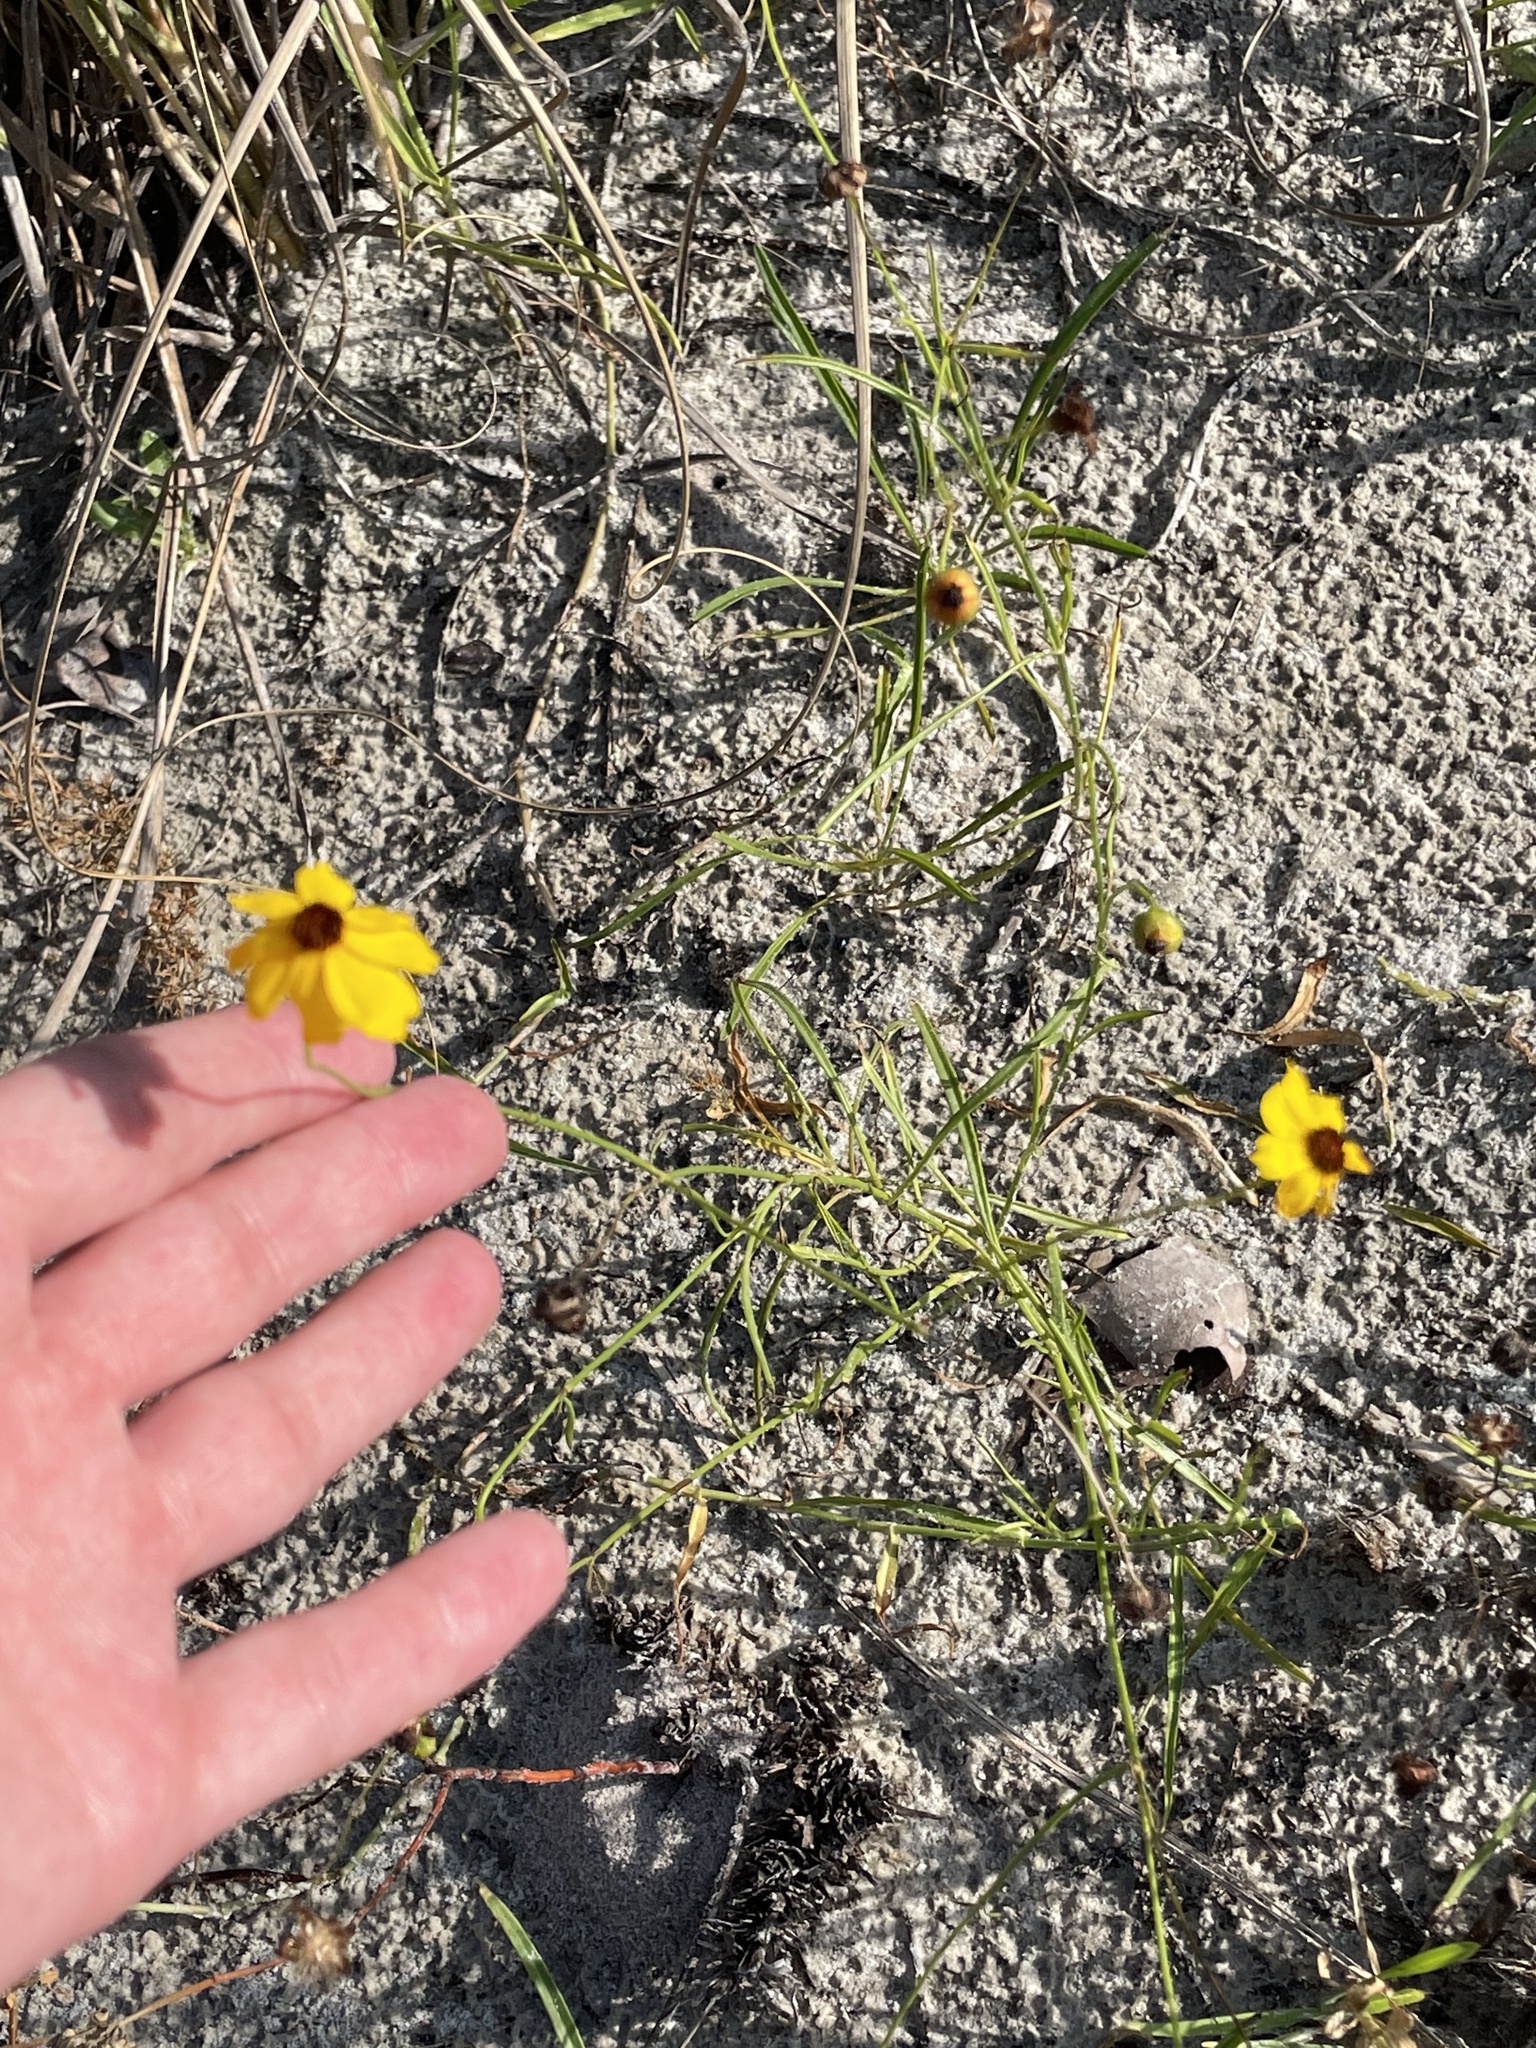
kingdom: Plantae
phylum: Tracheophyta
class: Magnoliopsida
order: Asterales
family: Asteraceae
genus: Coreopsis
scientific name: Coreopsis leavenworthii
